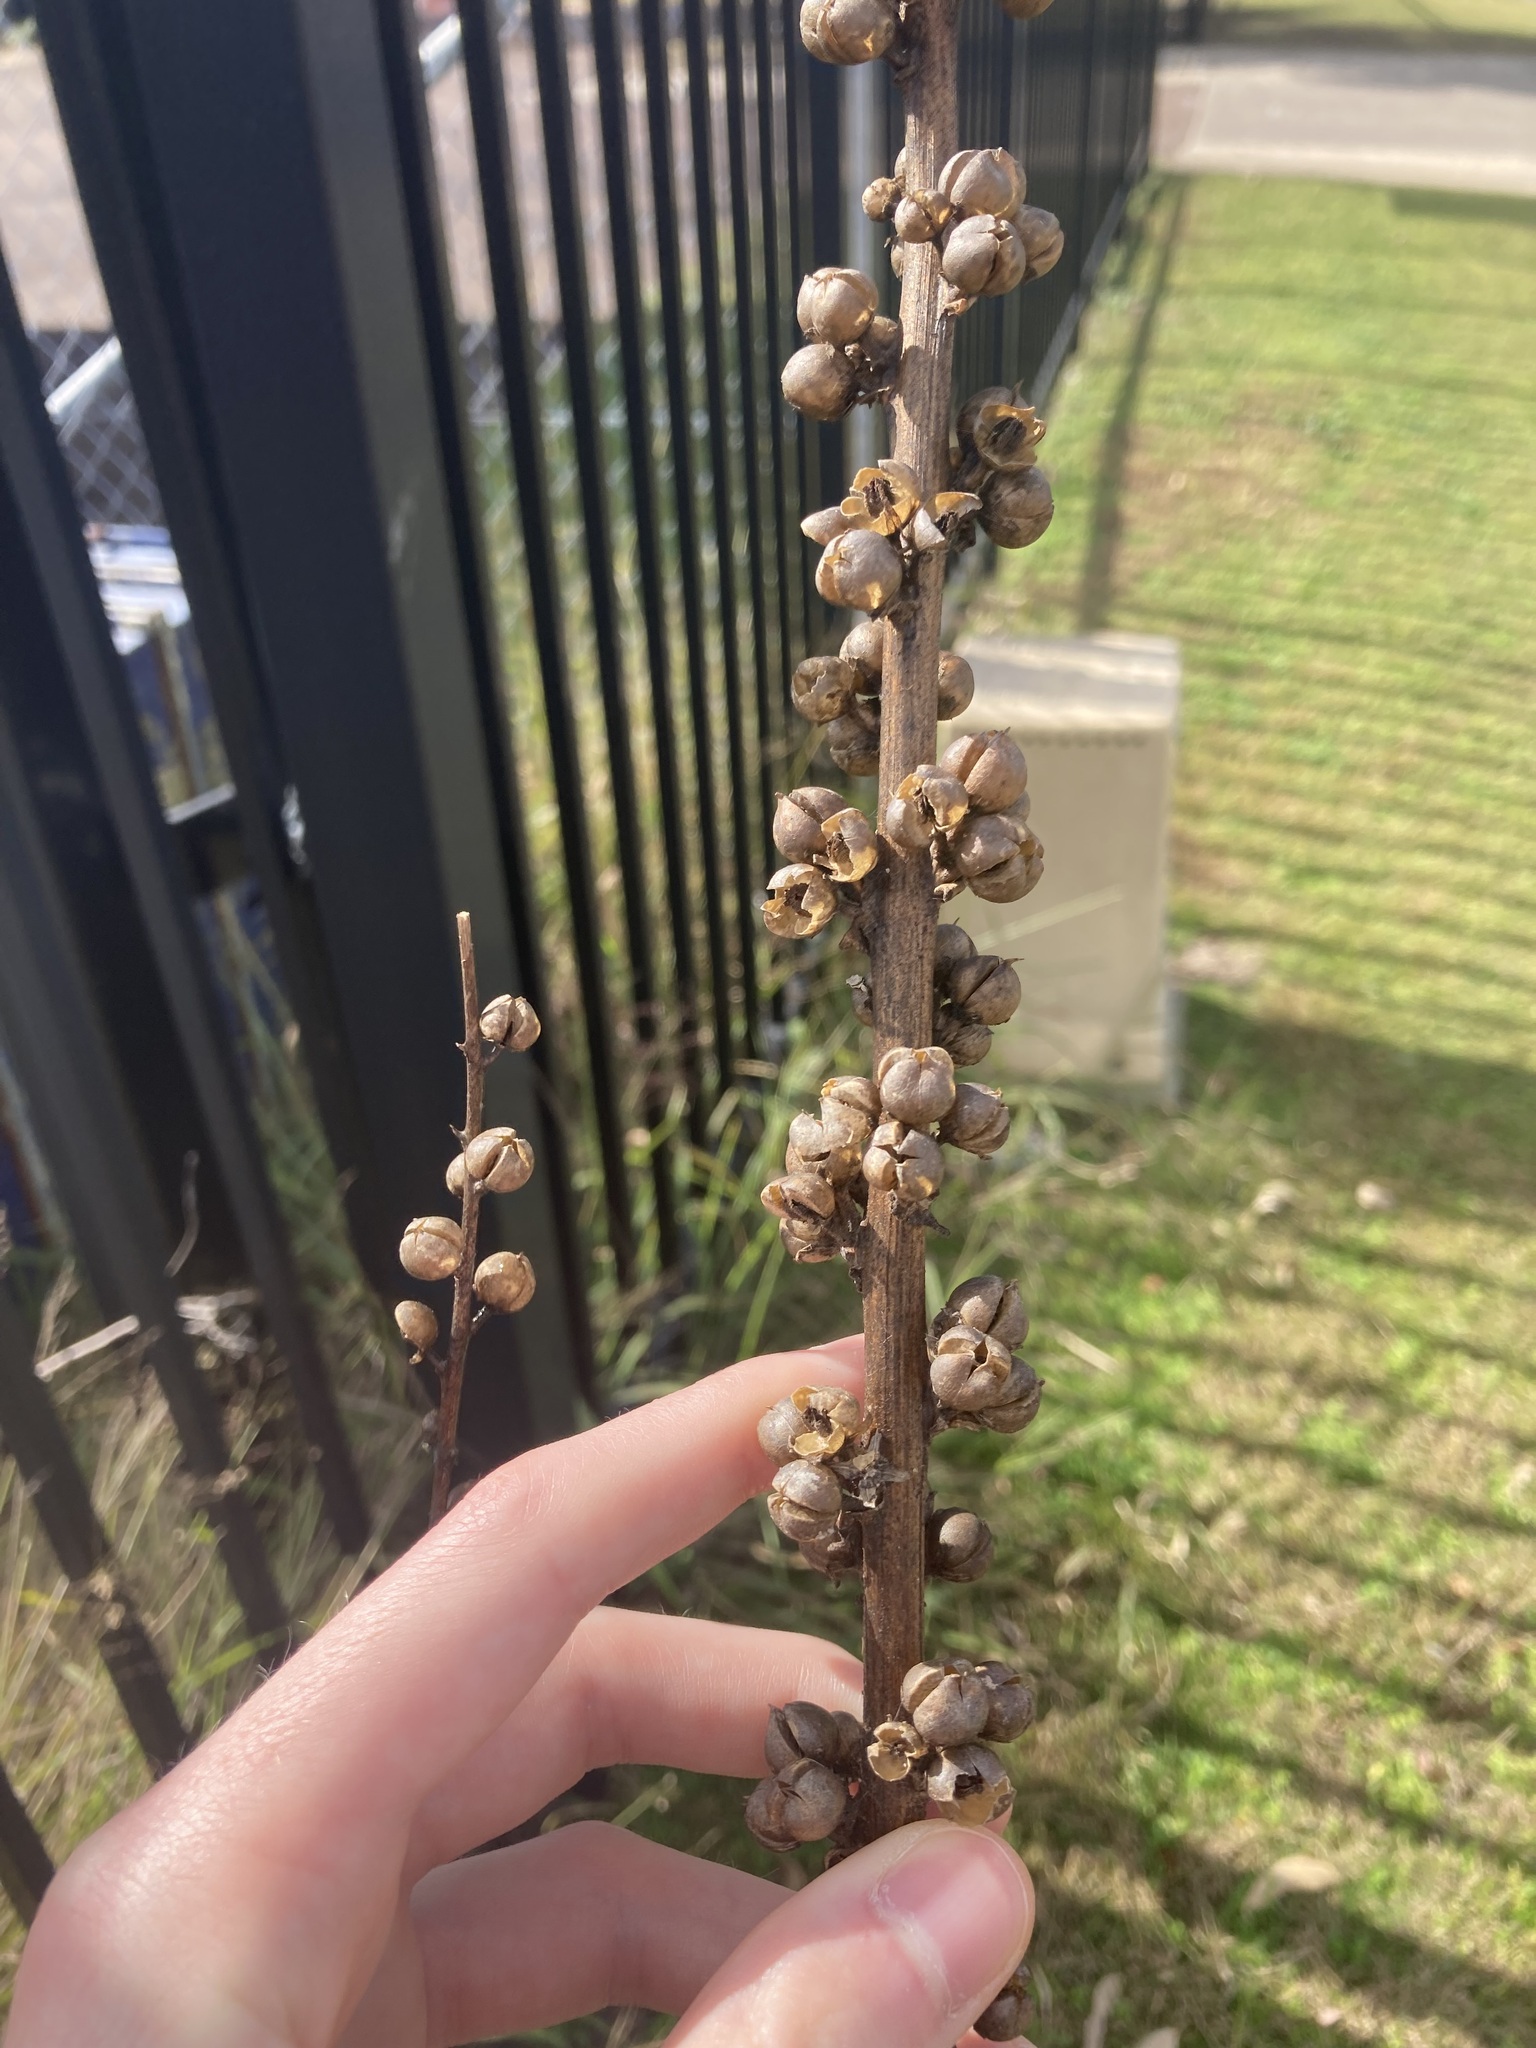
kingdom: Plantae
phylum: Tracheophyta
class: Magnoliopsida
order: Lamiales
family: Scrophulariaceae
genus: Verbascum
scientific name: Verbascum virgatum
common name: Twiggy mullein
